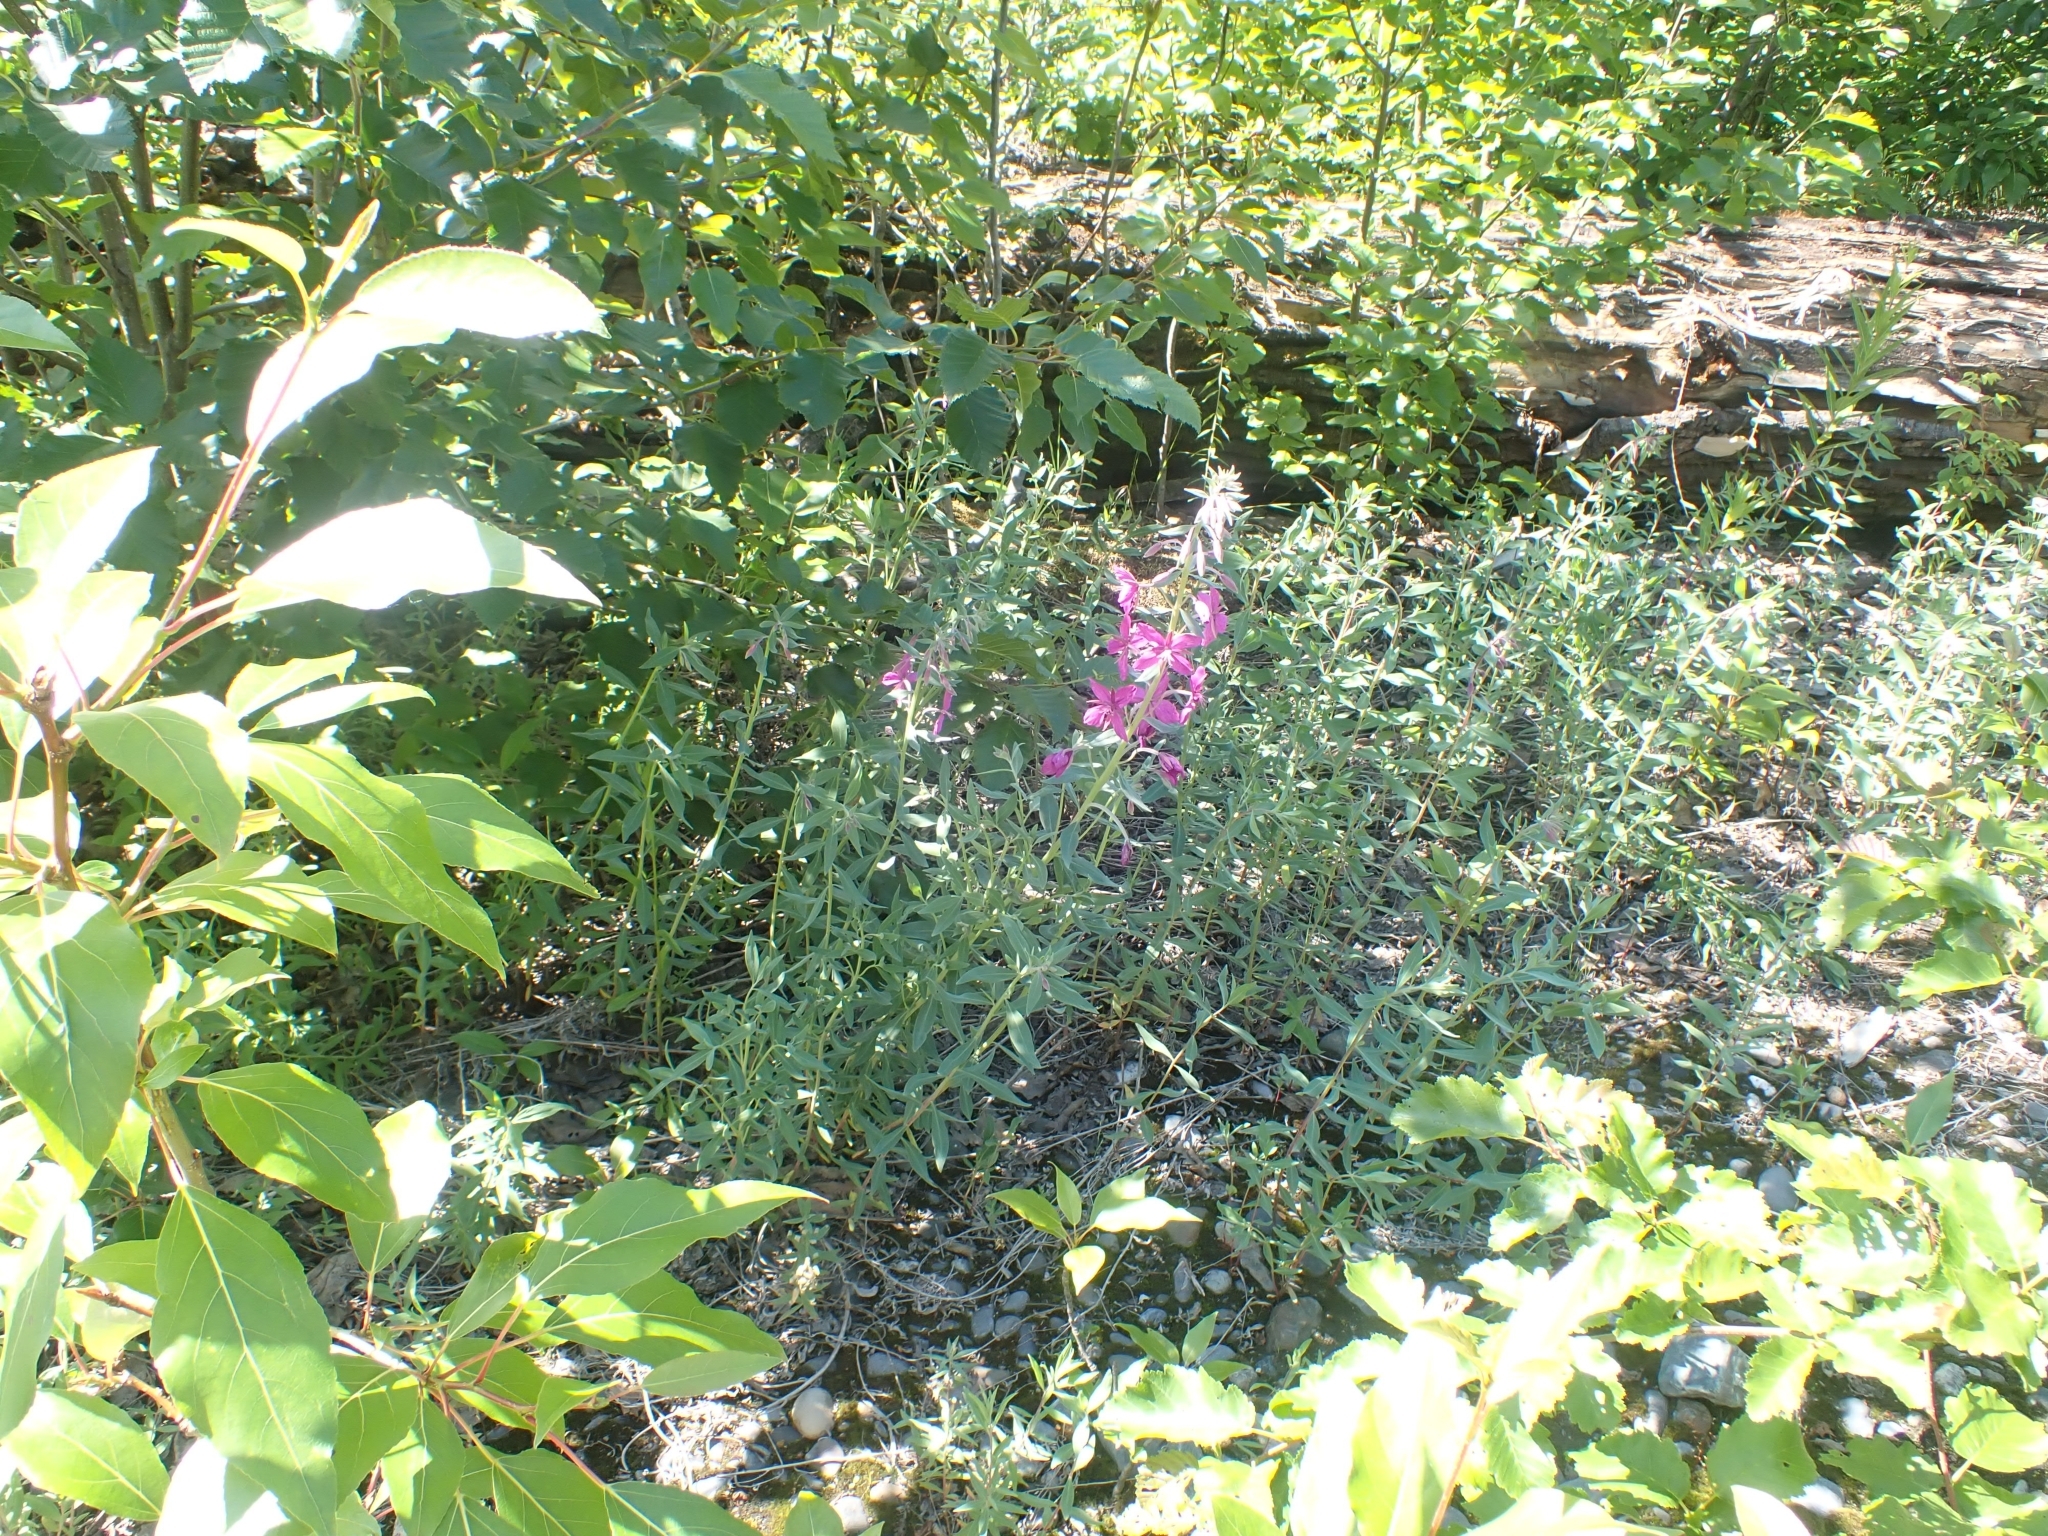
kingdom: Plantae
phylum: Tracheophyta
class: Magnoliopsida
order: Myrtales
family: Onagraceae
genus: Chamaenerion
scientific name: Chamaenerion latifolium
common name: Dwarf fireweed
